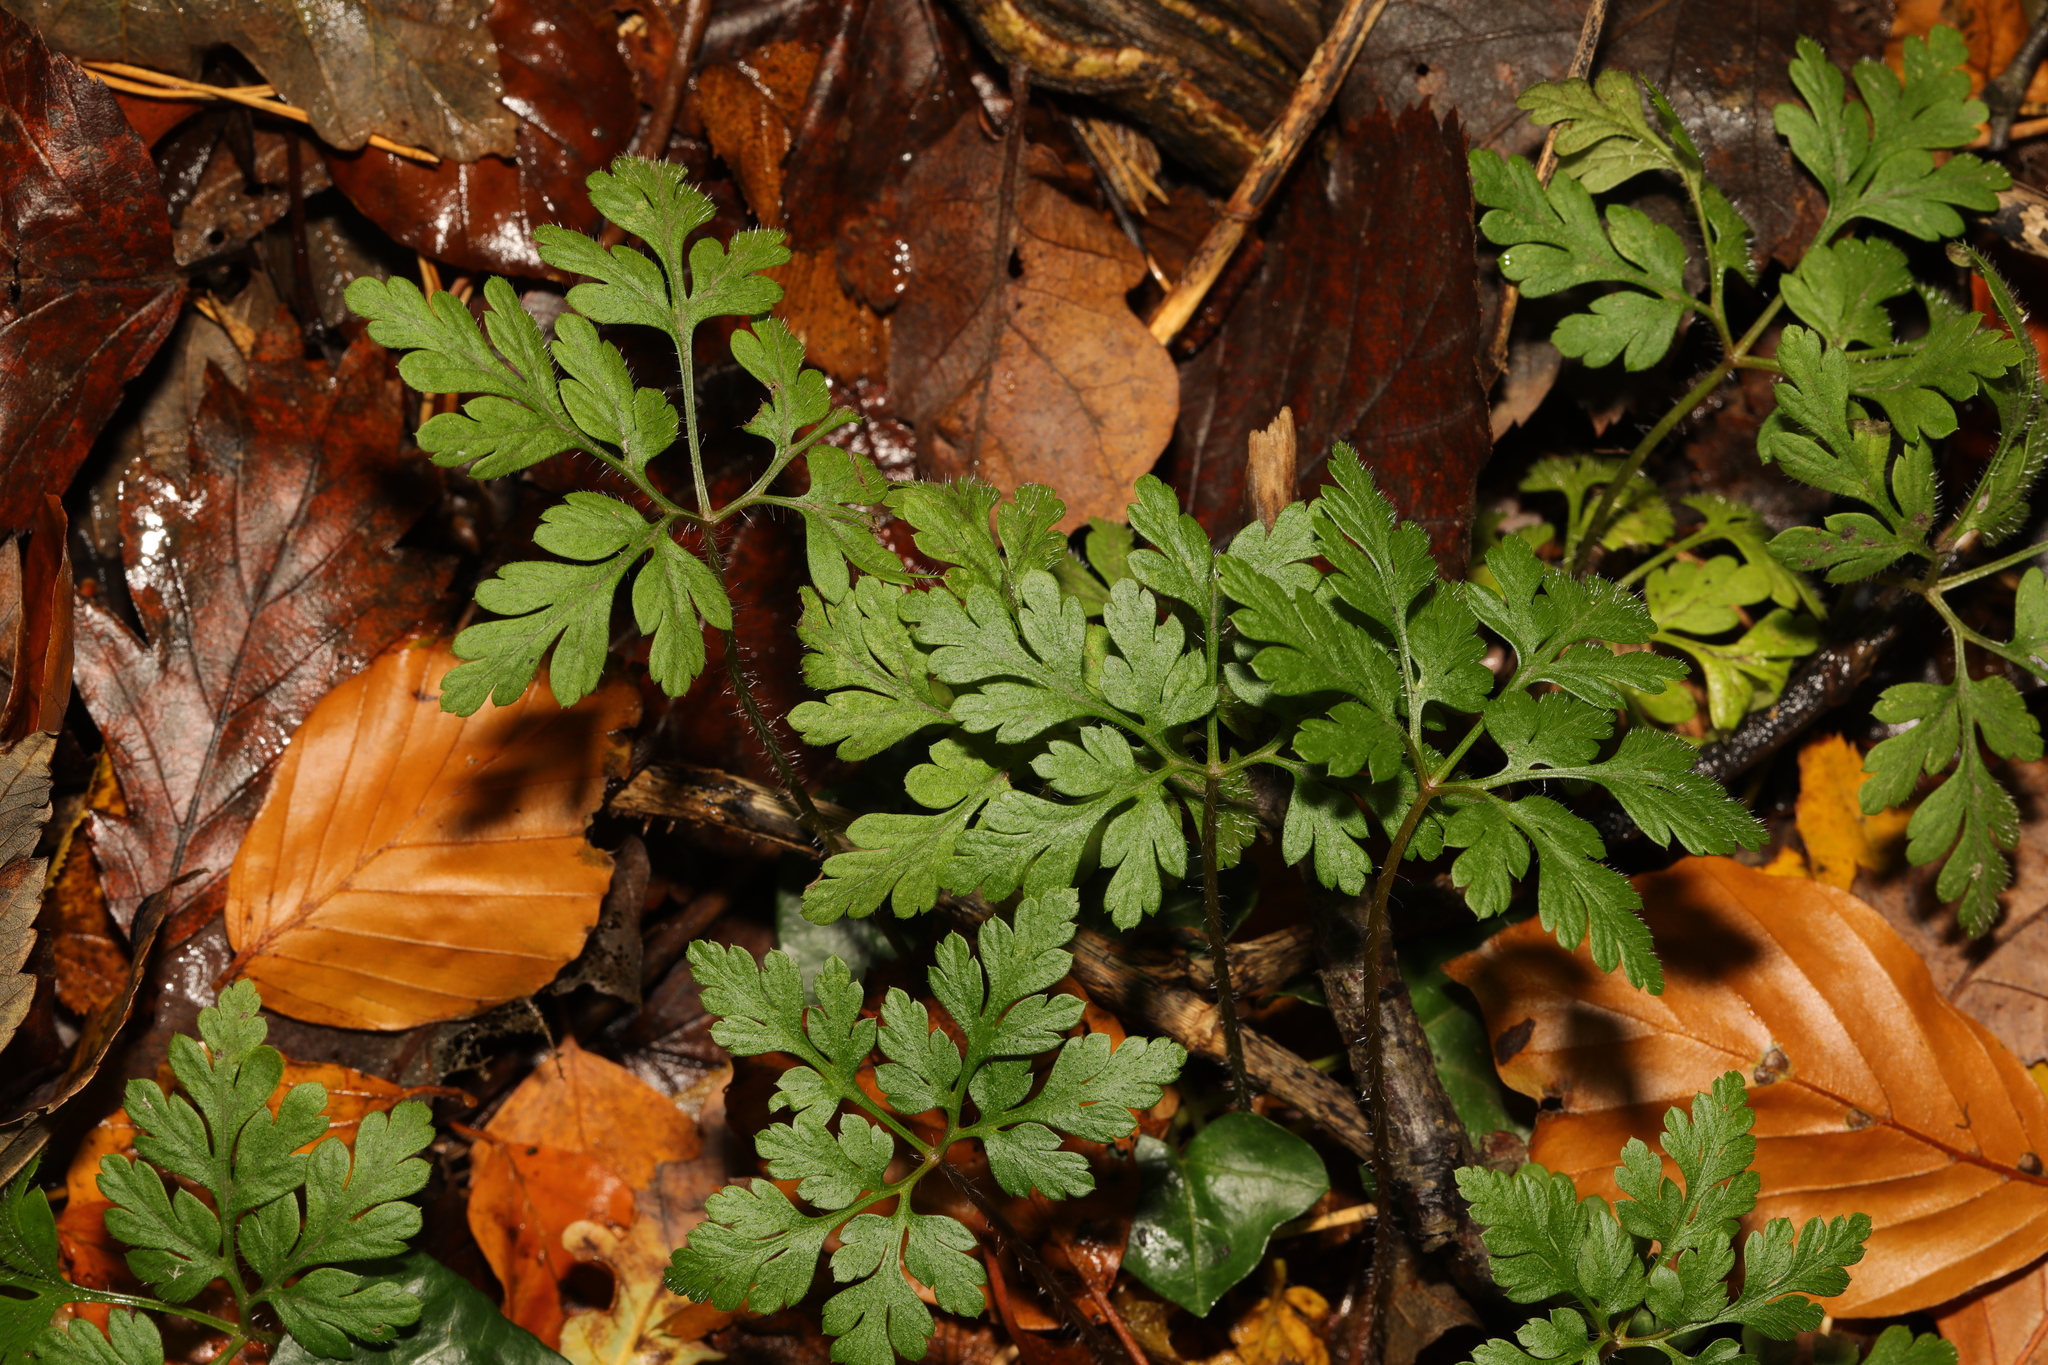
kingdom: Plantae
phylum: Tracheophyta
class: Magnoliopsida
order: Geraniales
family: Geraniaceae
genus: Geranium
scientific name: Geranium robertianum
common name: Herb-robert
